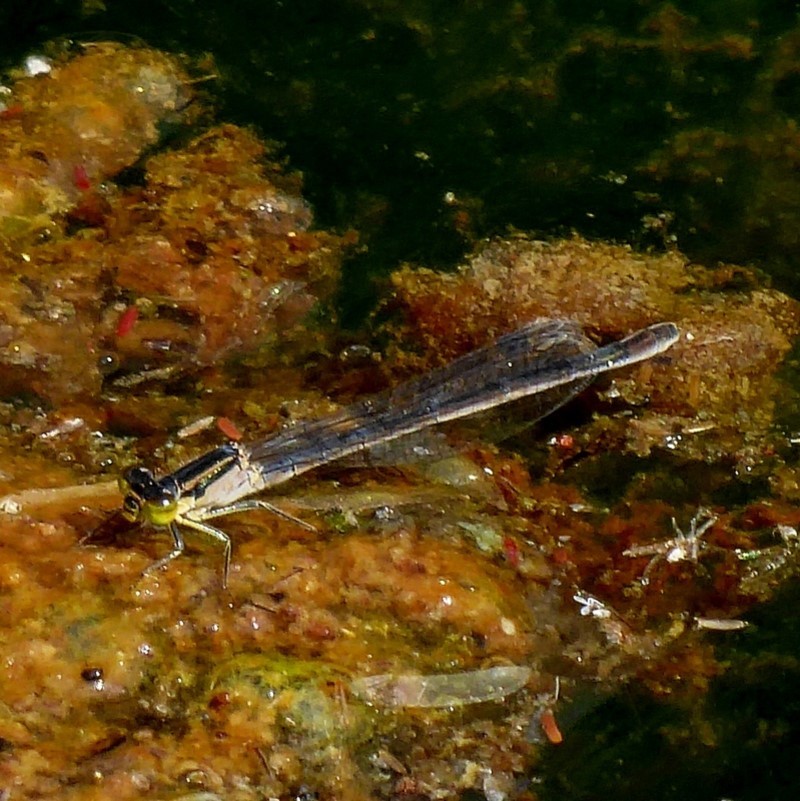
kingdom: Animalia
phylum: Arthropoda
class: Insecta
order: Odonata
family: Coenagrionidae
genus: Ischnura
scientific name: Ischnura heterosticta
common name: Common bluetail
